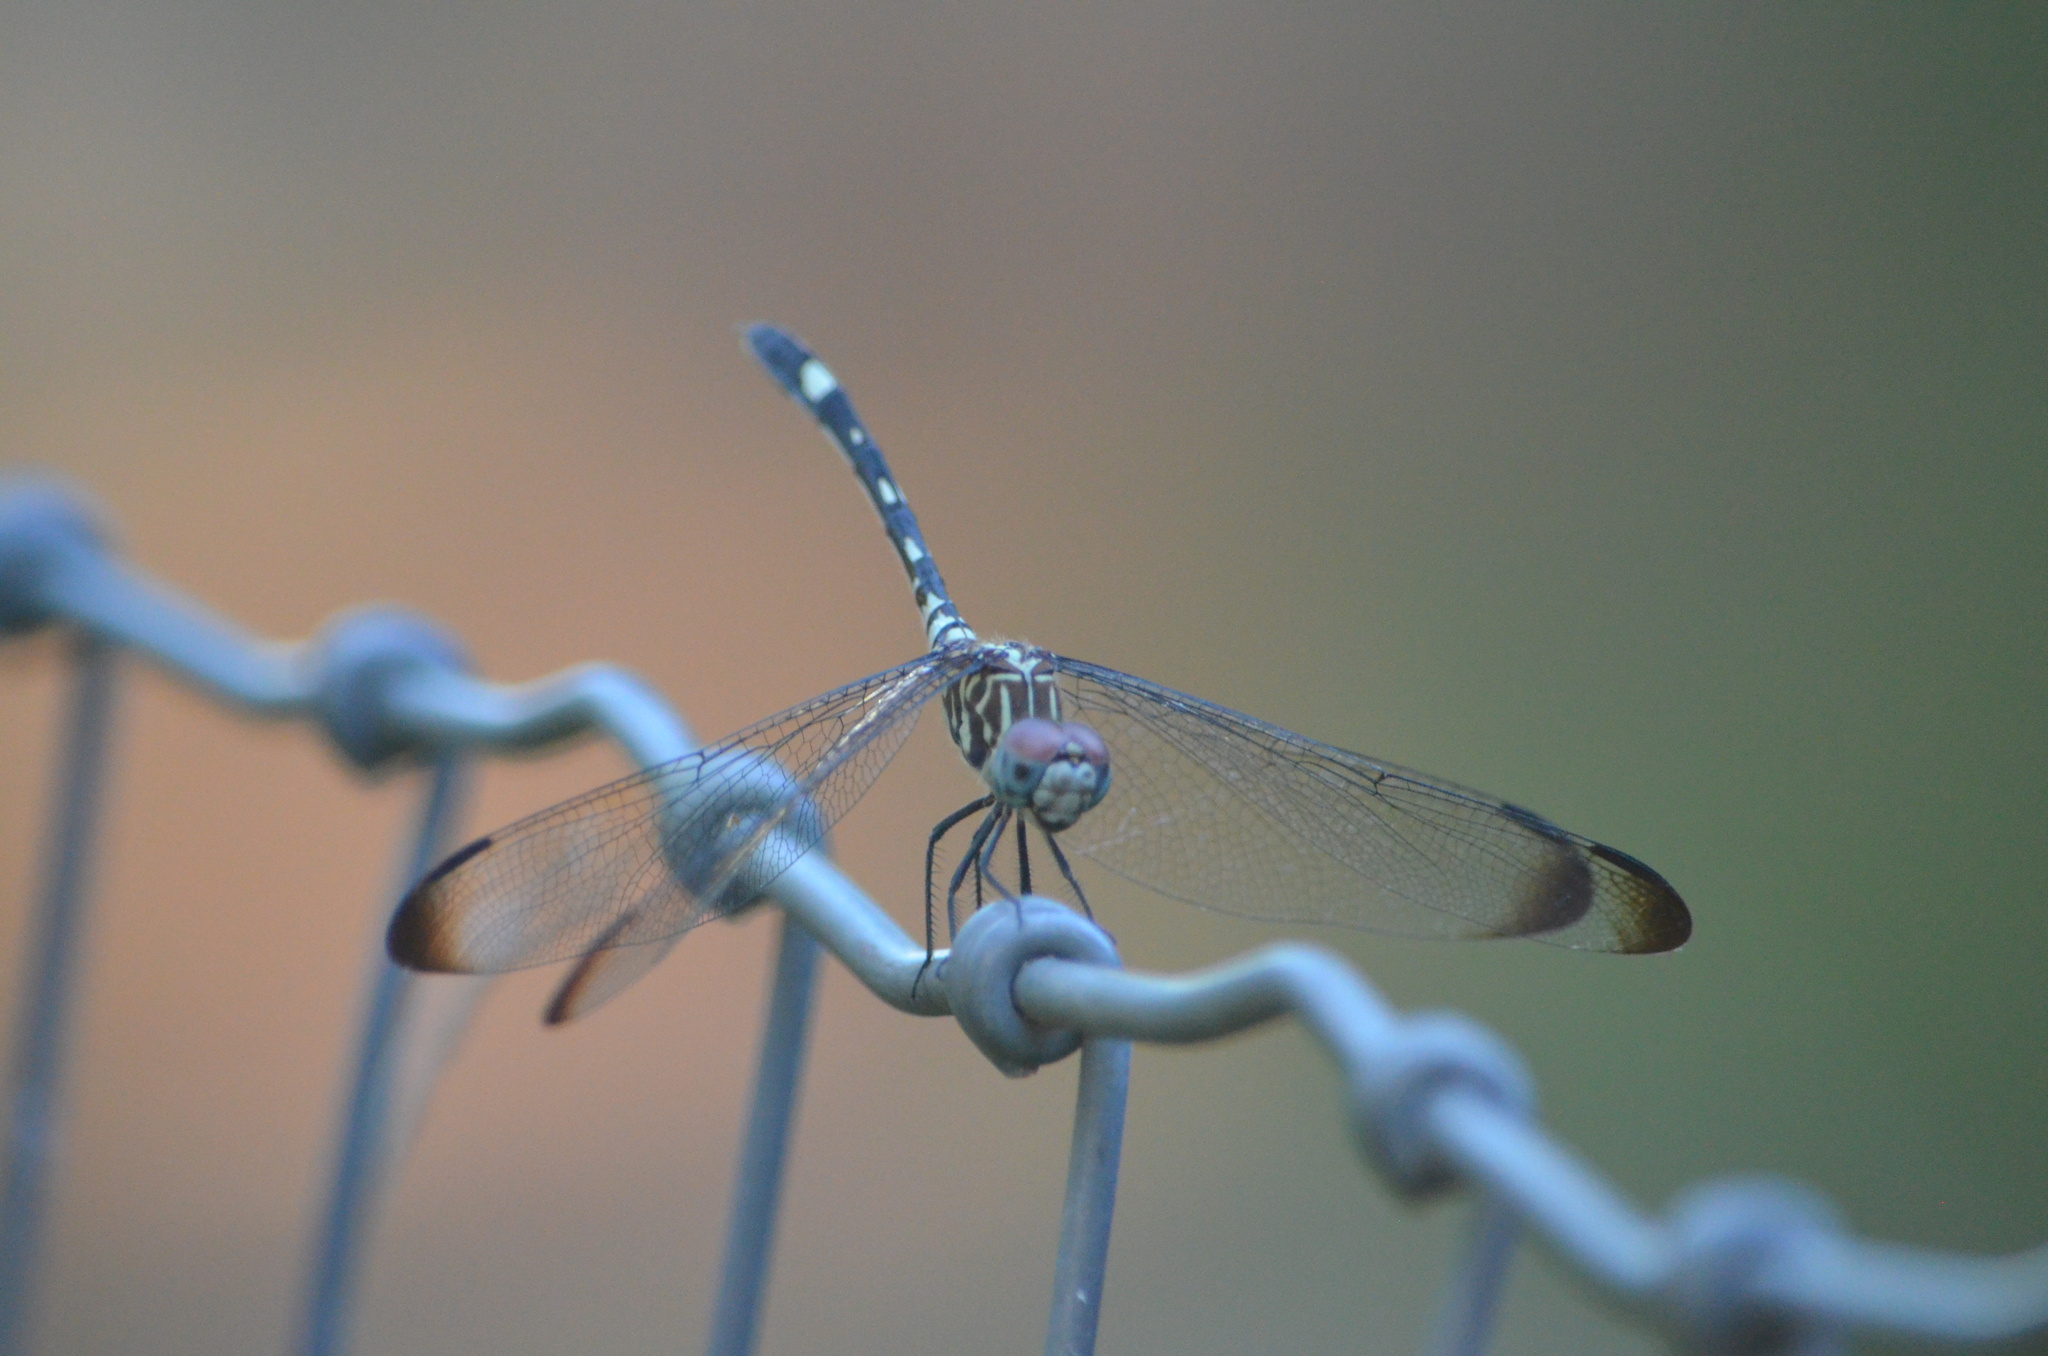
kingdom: Animalia
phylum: Arthropoda
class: Insecta
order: Odonata
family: Libellulidae
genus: Dythemis
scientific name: Dythemis velox
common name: Swift setwing
